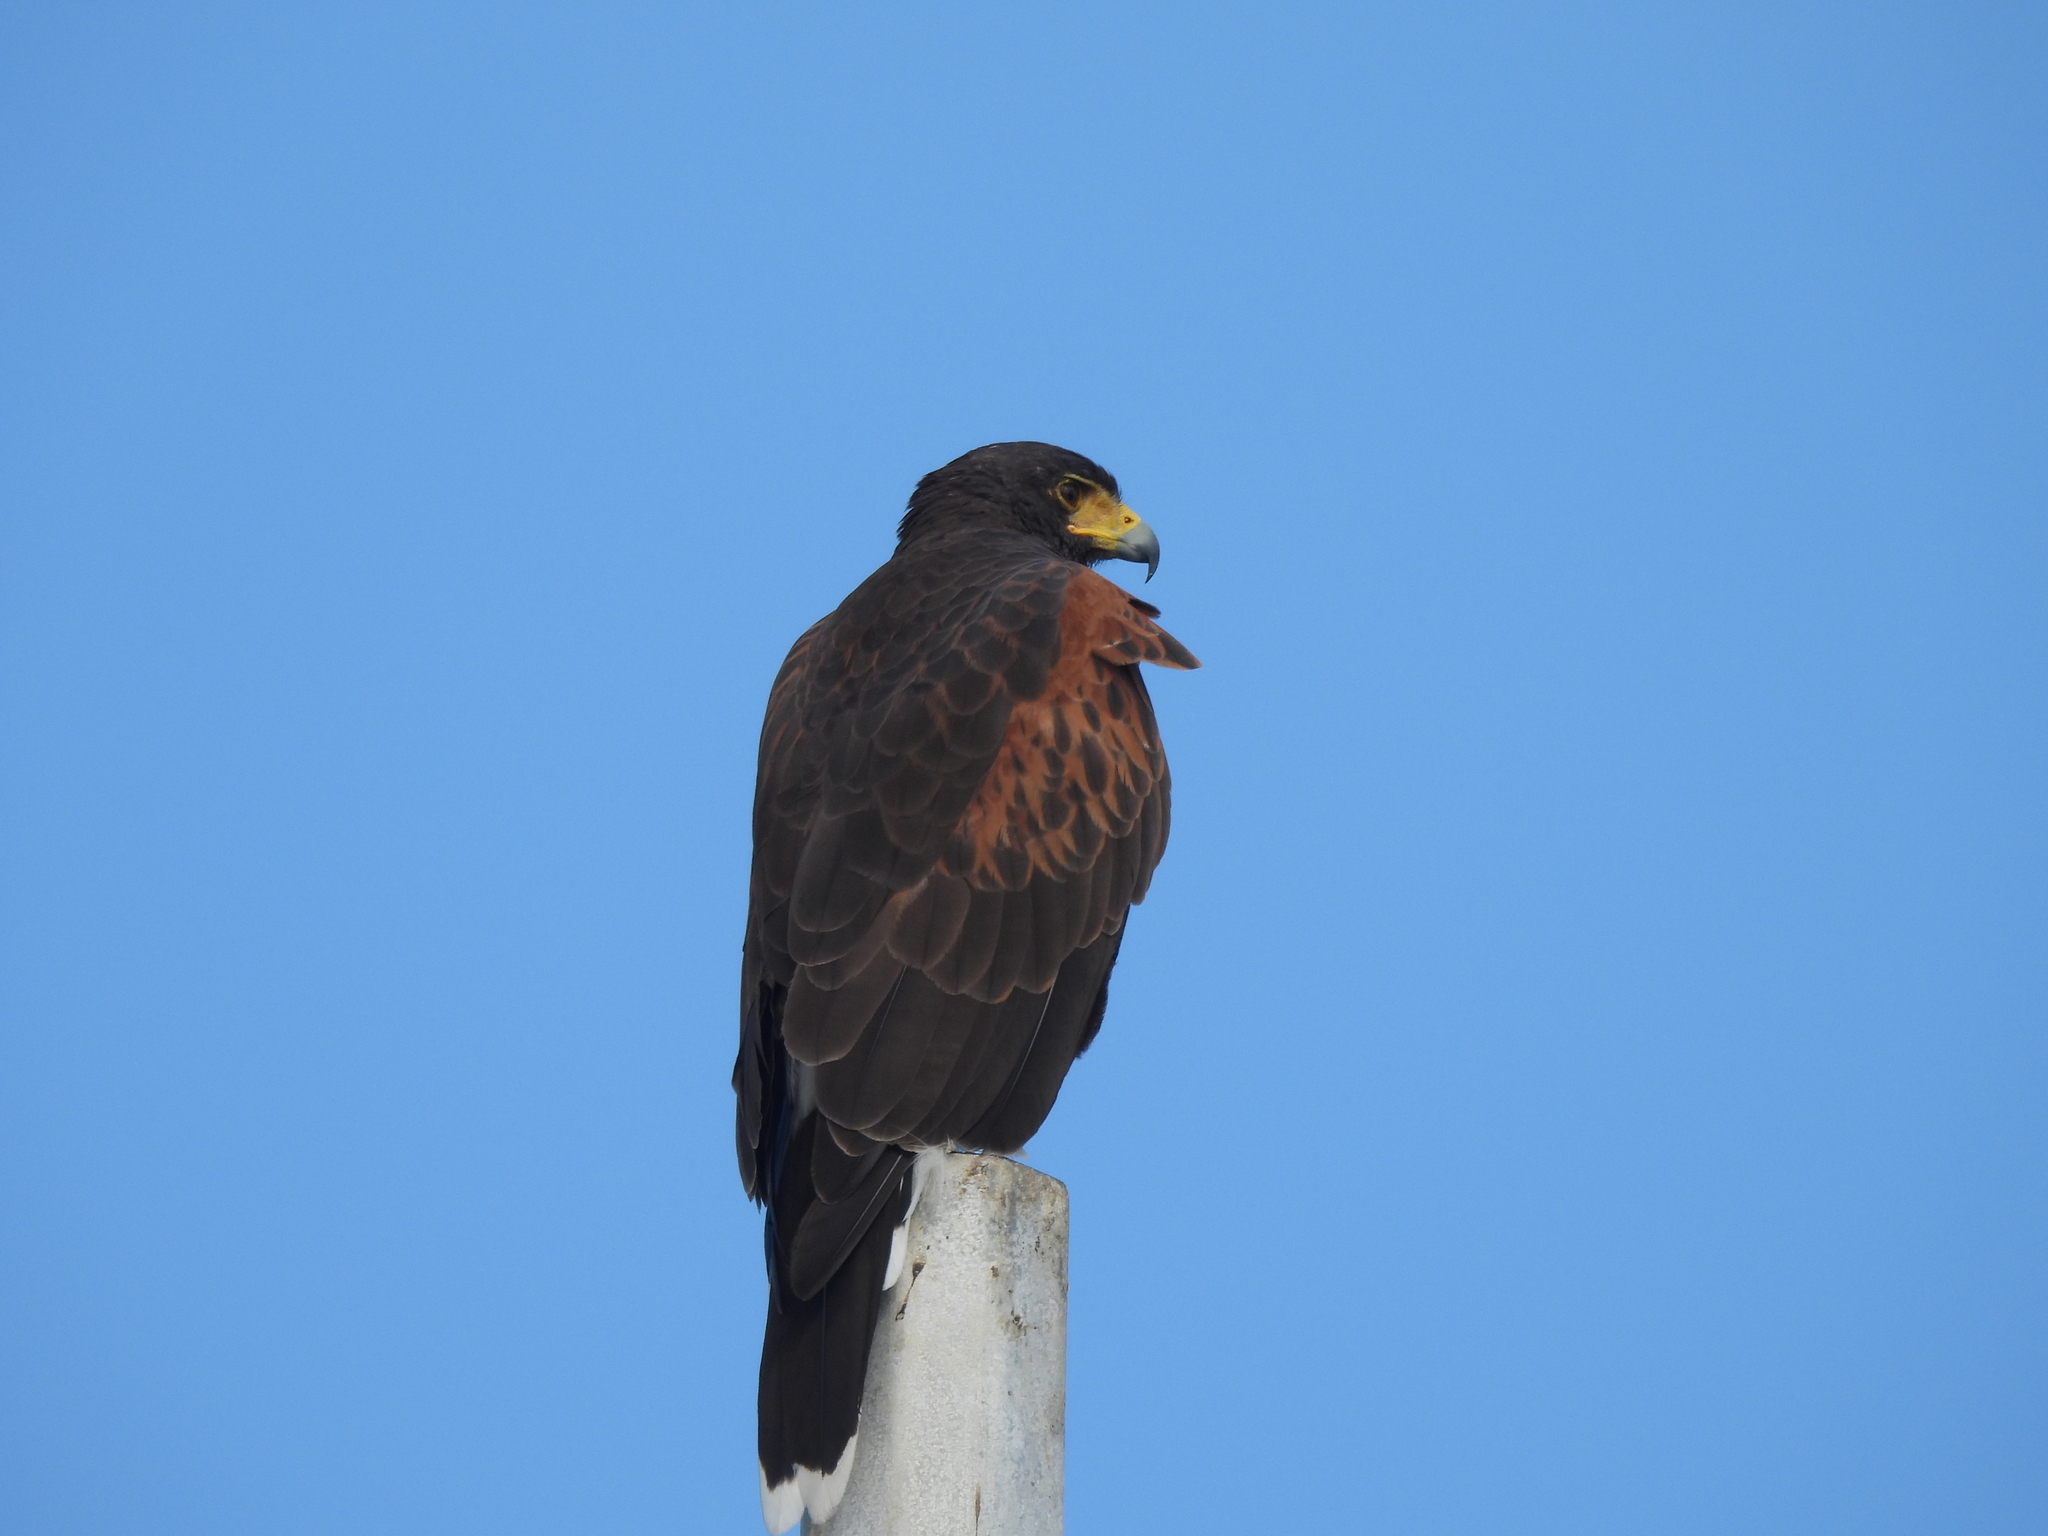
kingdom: Animalia
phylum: Chordata
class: Aves
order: Accipitriformes
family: Accipitridae
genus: Parabuteo
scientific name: Parabuteo unicinctus
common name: Harris's hawk
